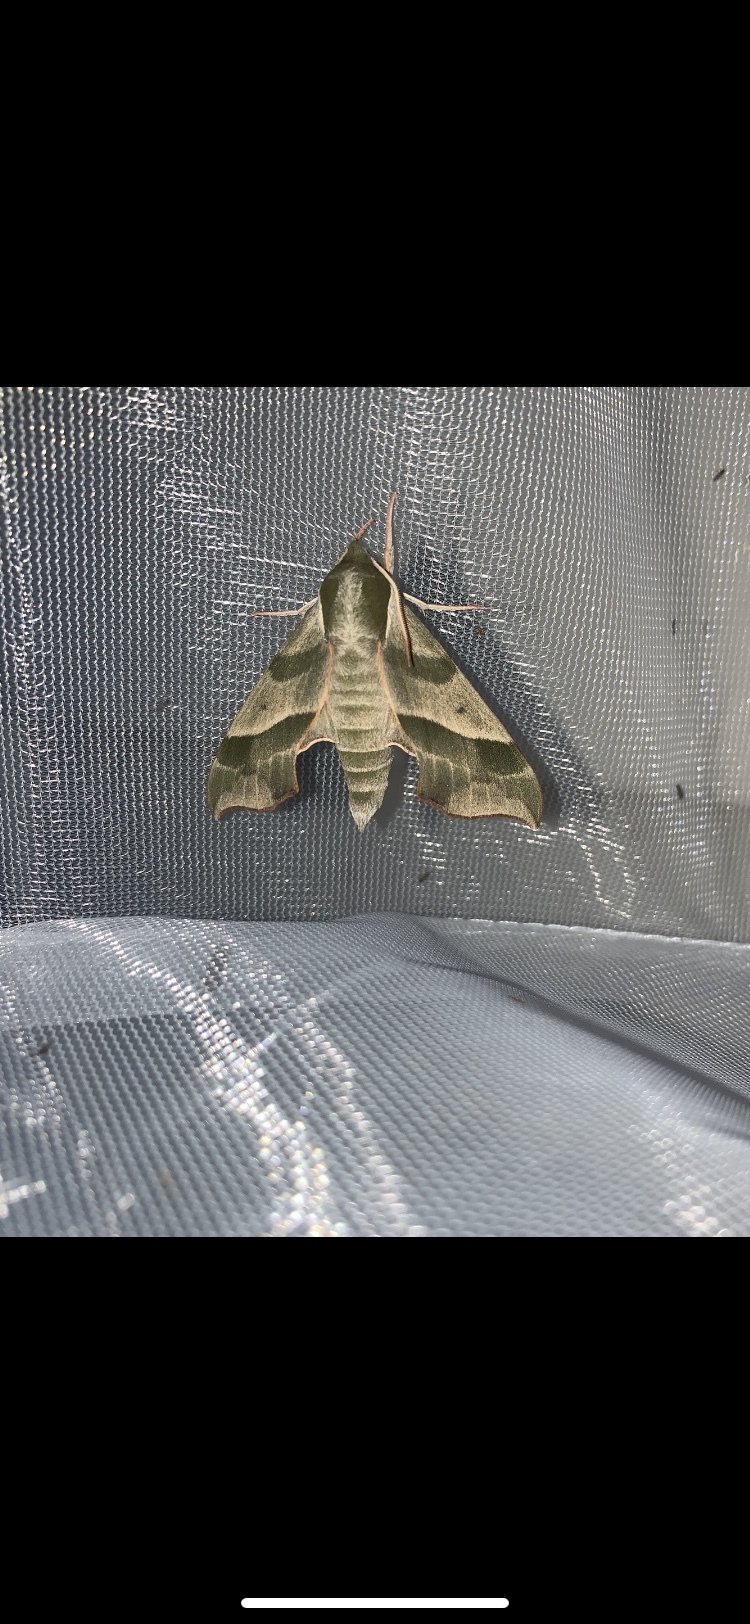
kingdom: Animalia
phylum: Arthropoda
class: Insecta
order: Lepidoptera
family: Sphingidae
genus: Darapsa
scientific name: Darapsa myron
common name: Hog sphinx
